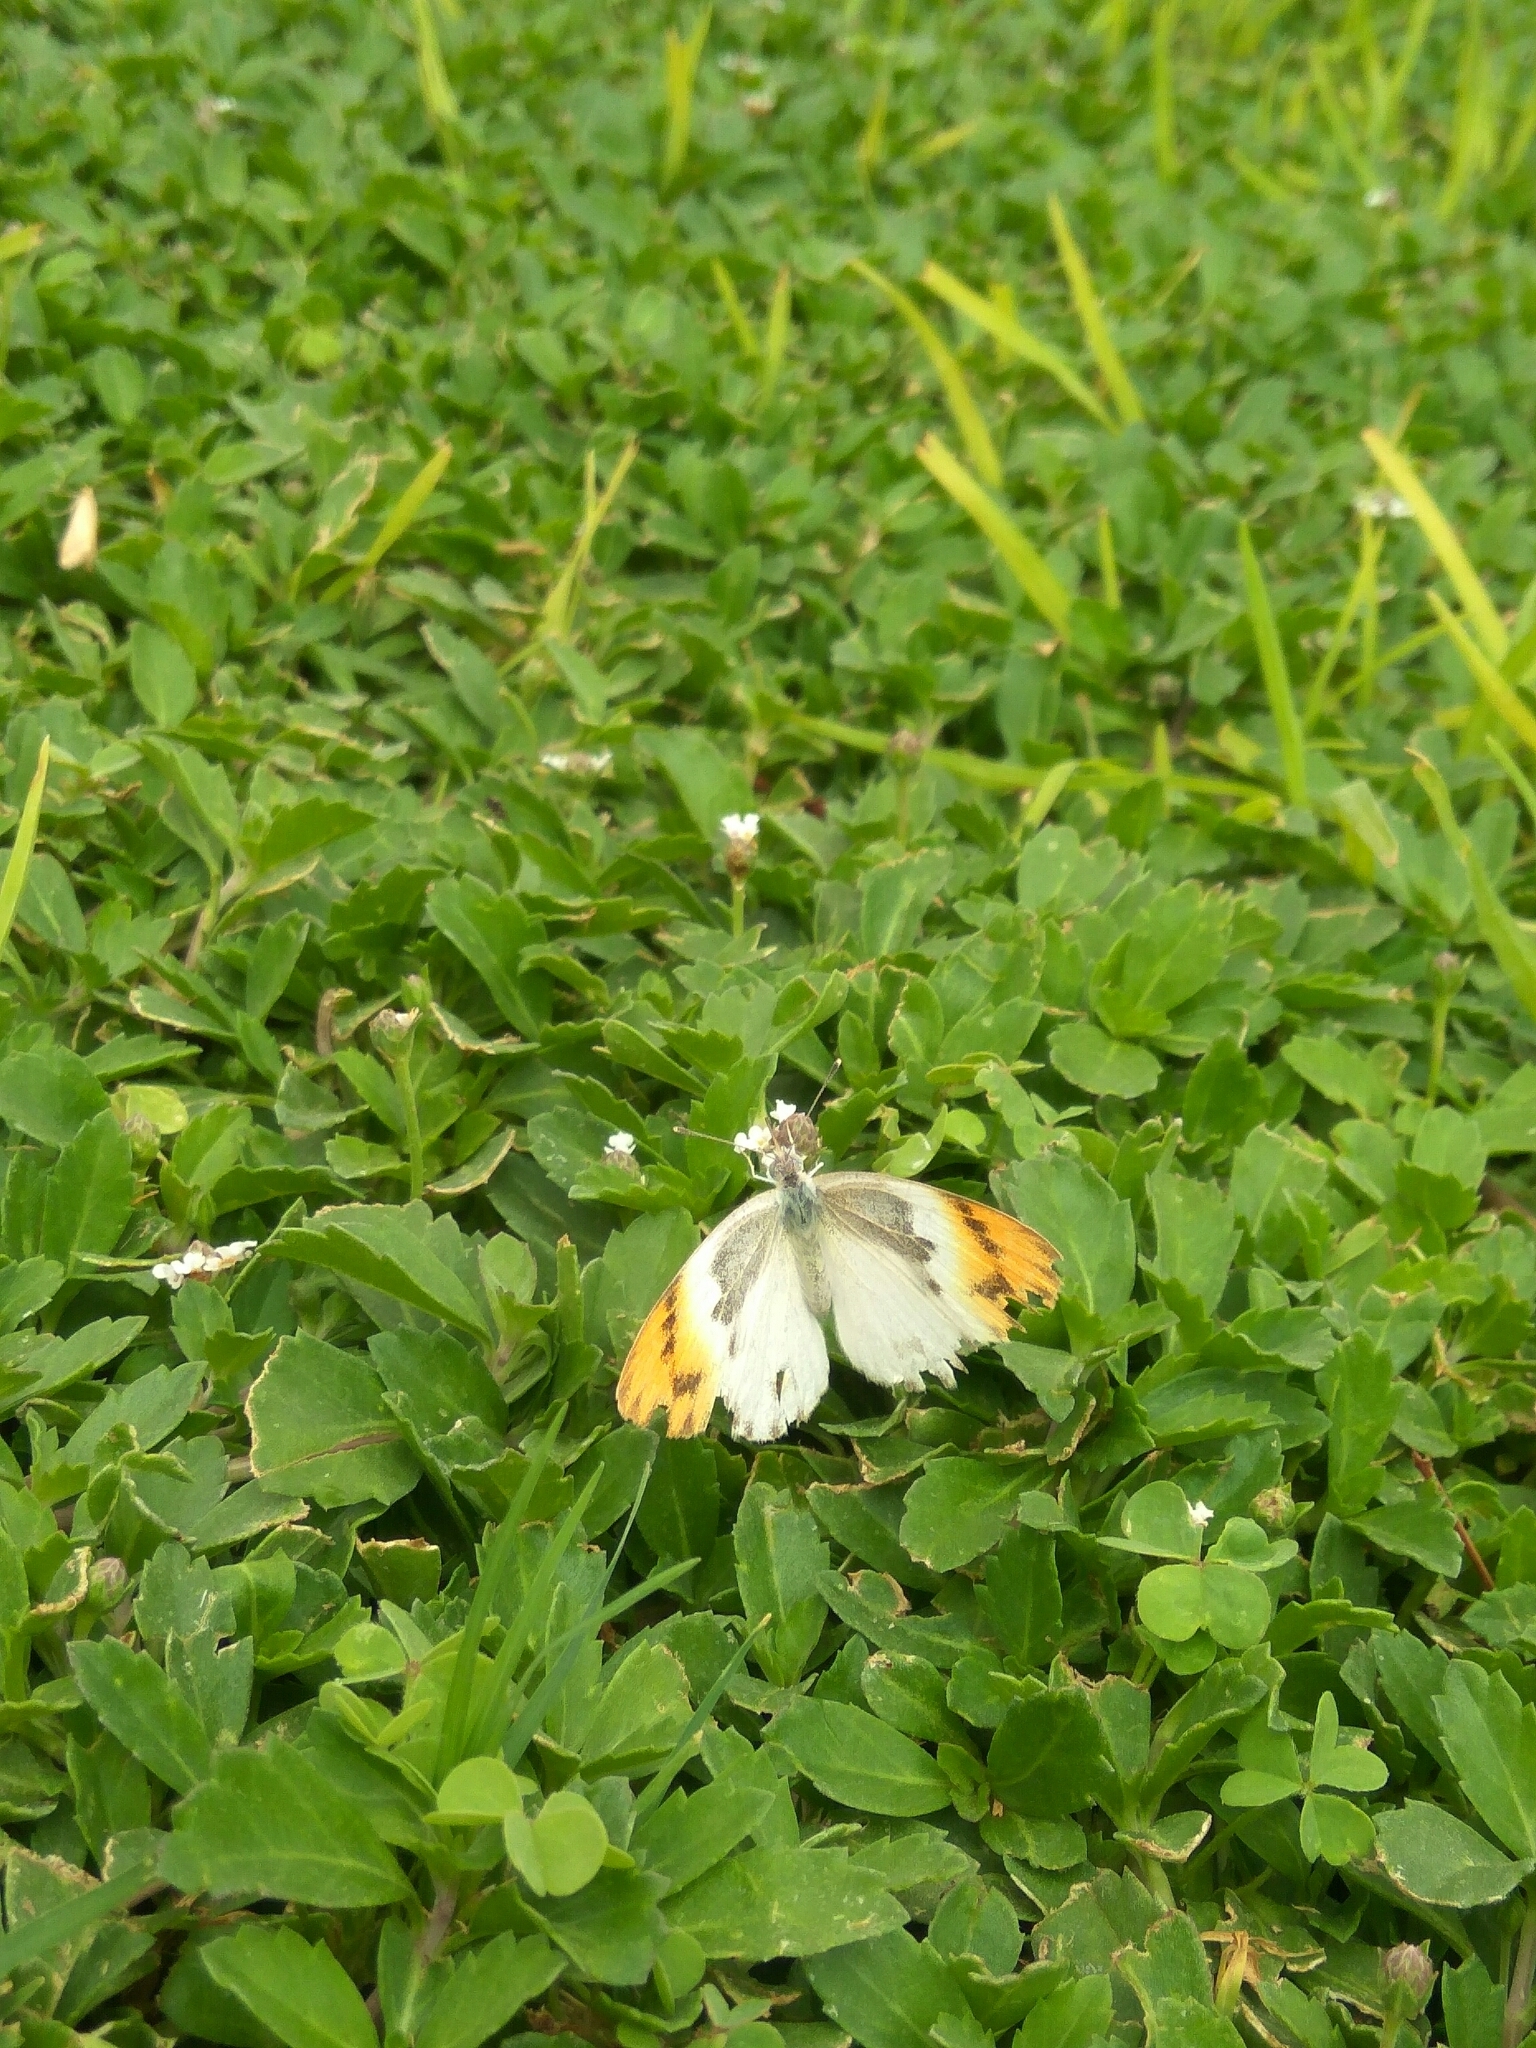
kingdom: Animalia
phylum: Arthropoda
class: Insecta
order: Lepidoptera
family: Pieridae
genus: Colotis
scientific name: Colotis evenina
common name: Common orange tip
